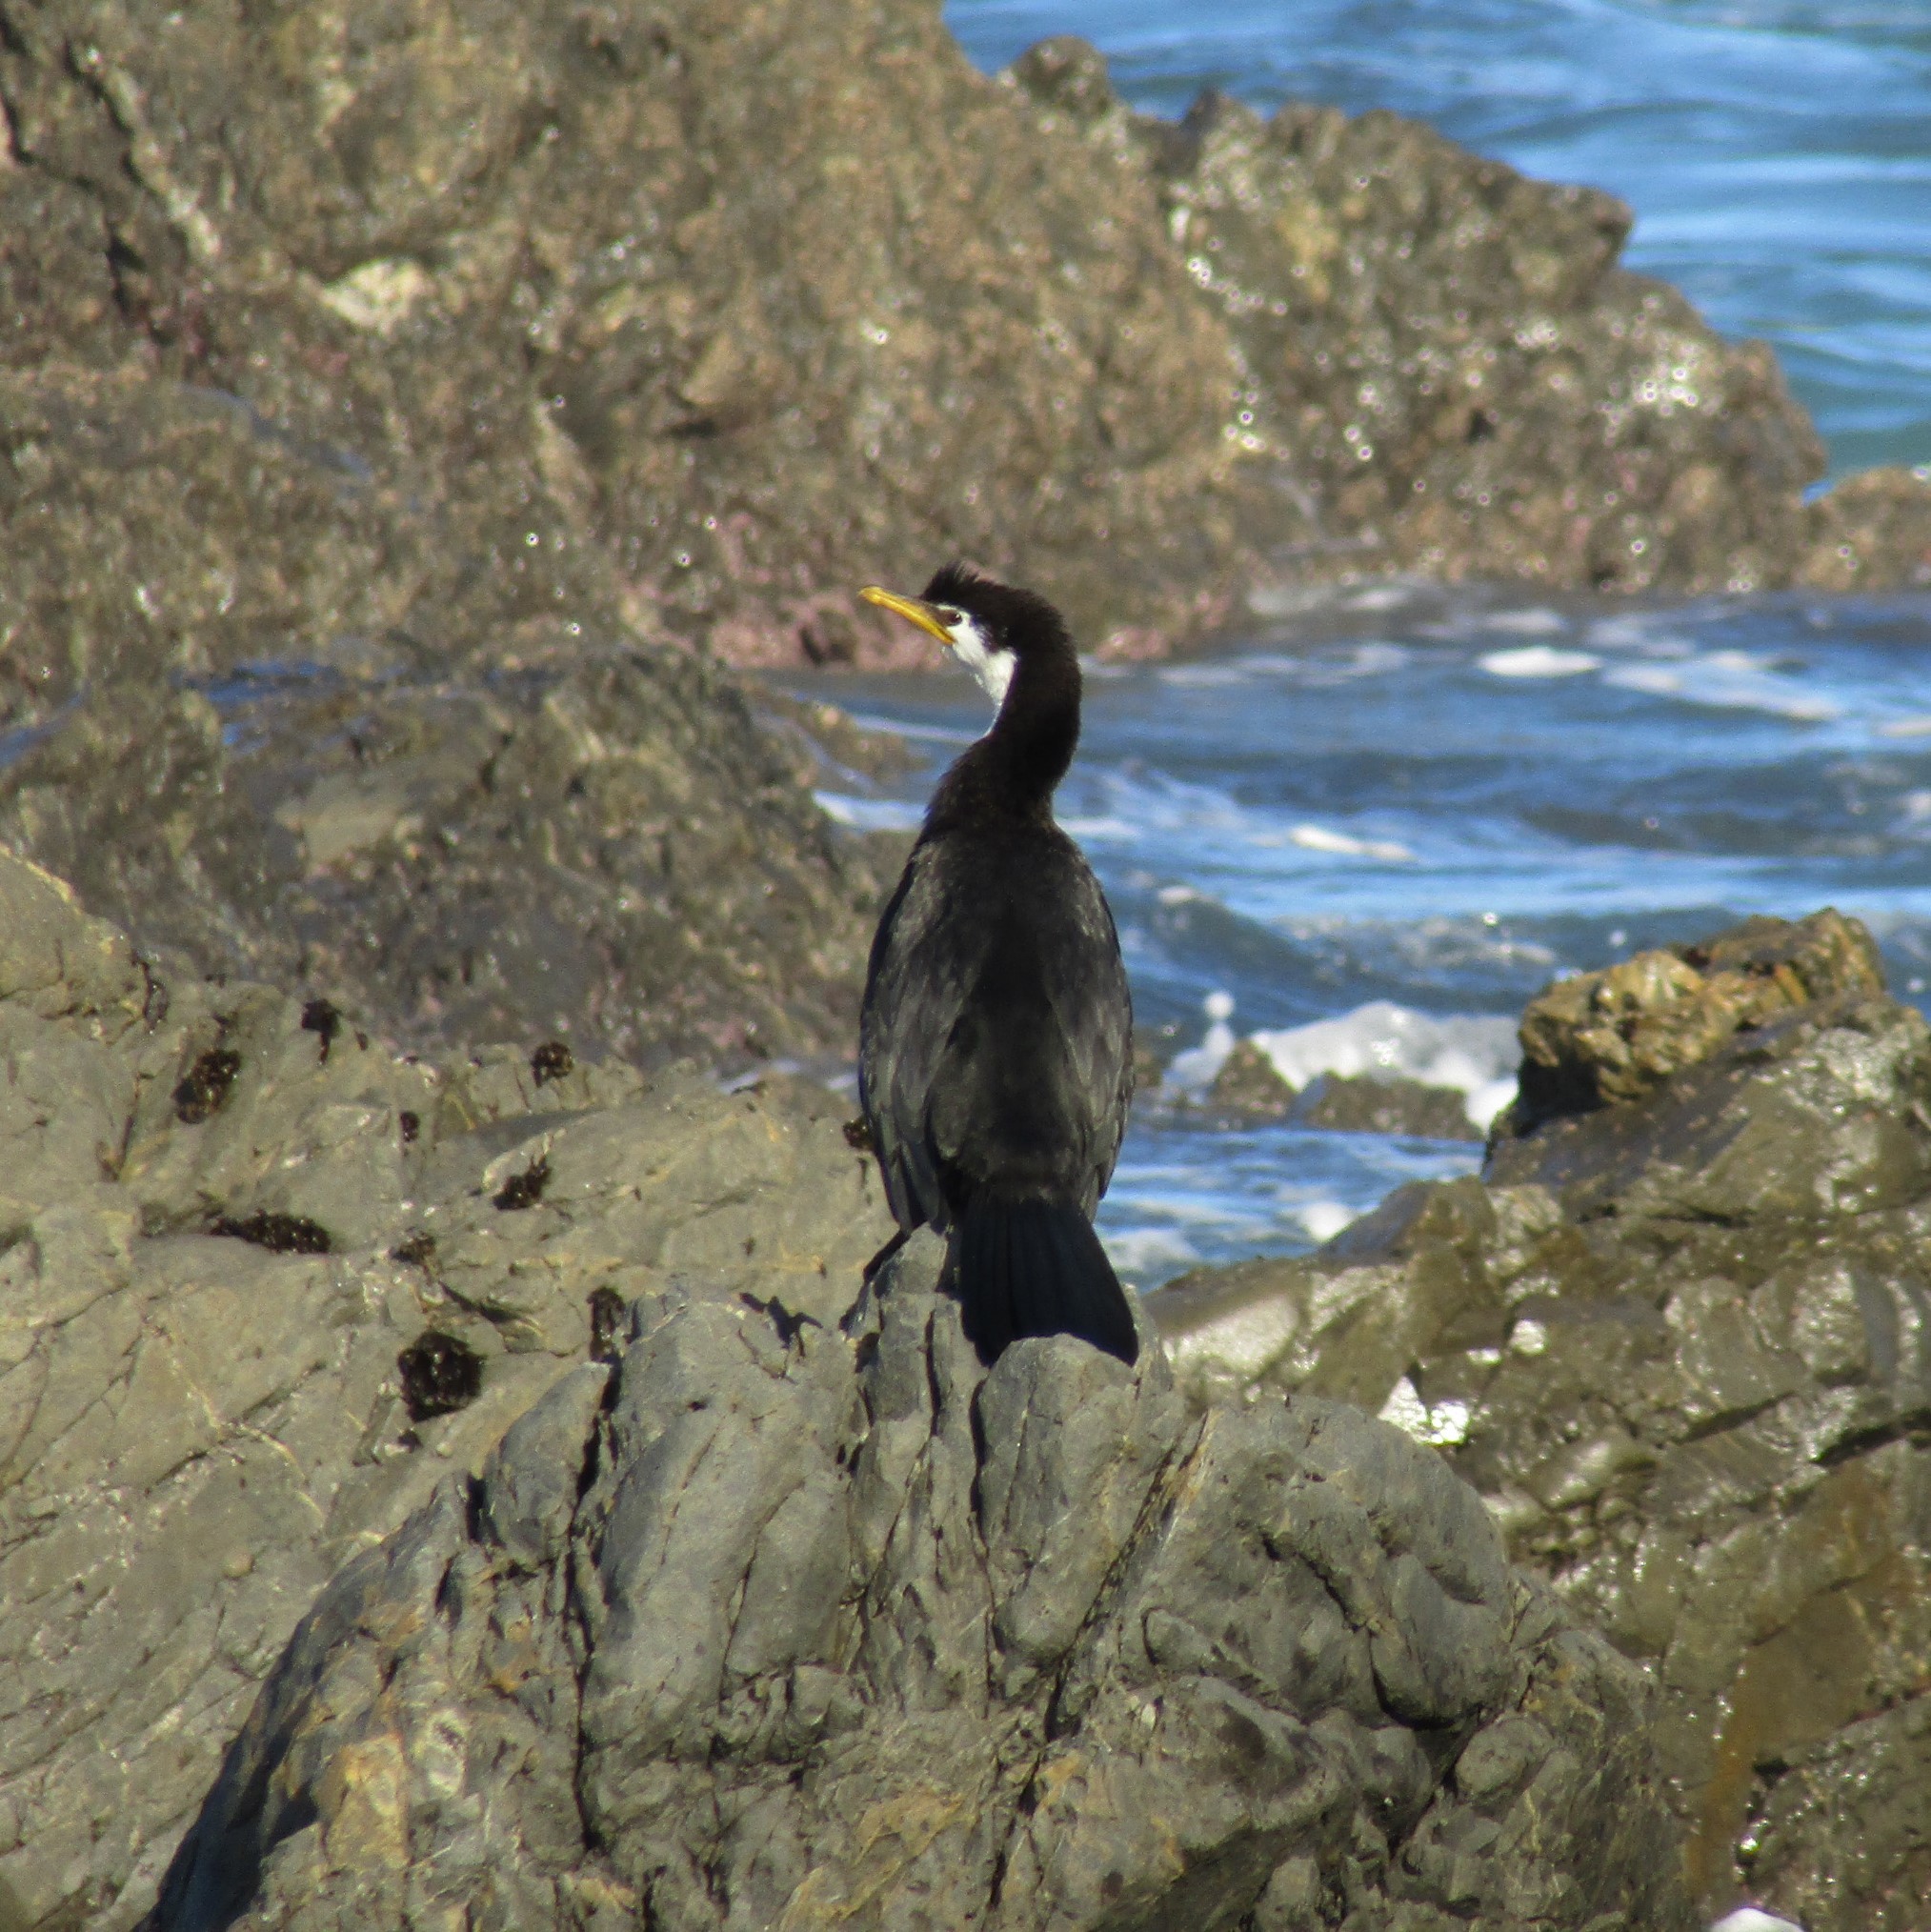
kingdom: Animalia
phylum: Chordata
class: Aves
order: Suliformes
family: Phalacrocoracidae
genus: Microcarbo
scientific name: Microcarbo melanoleucos
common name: Little pied cormorant
